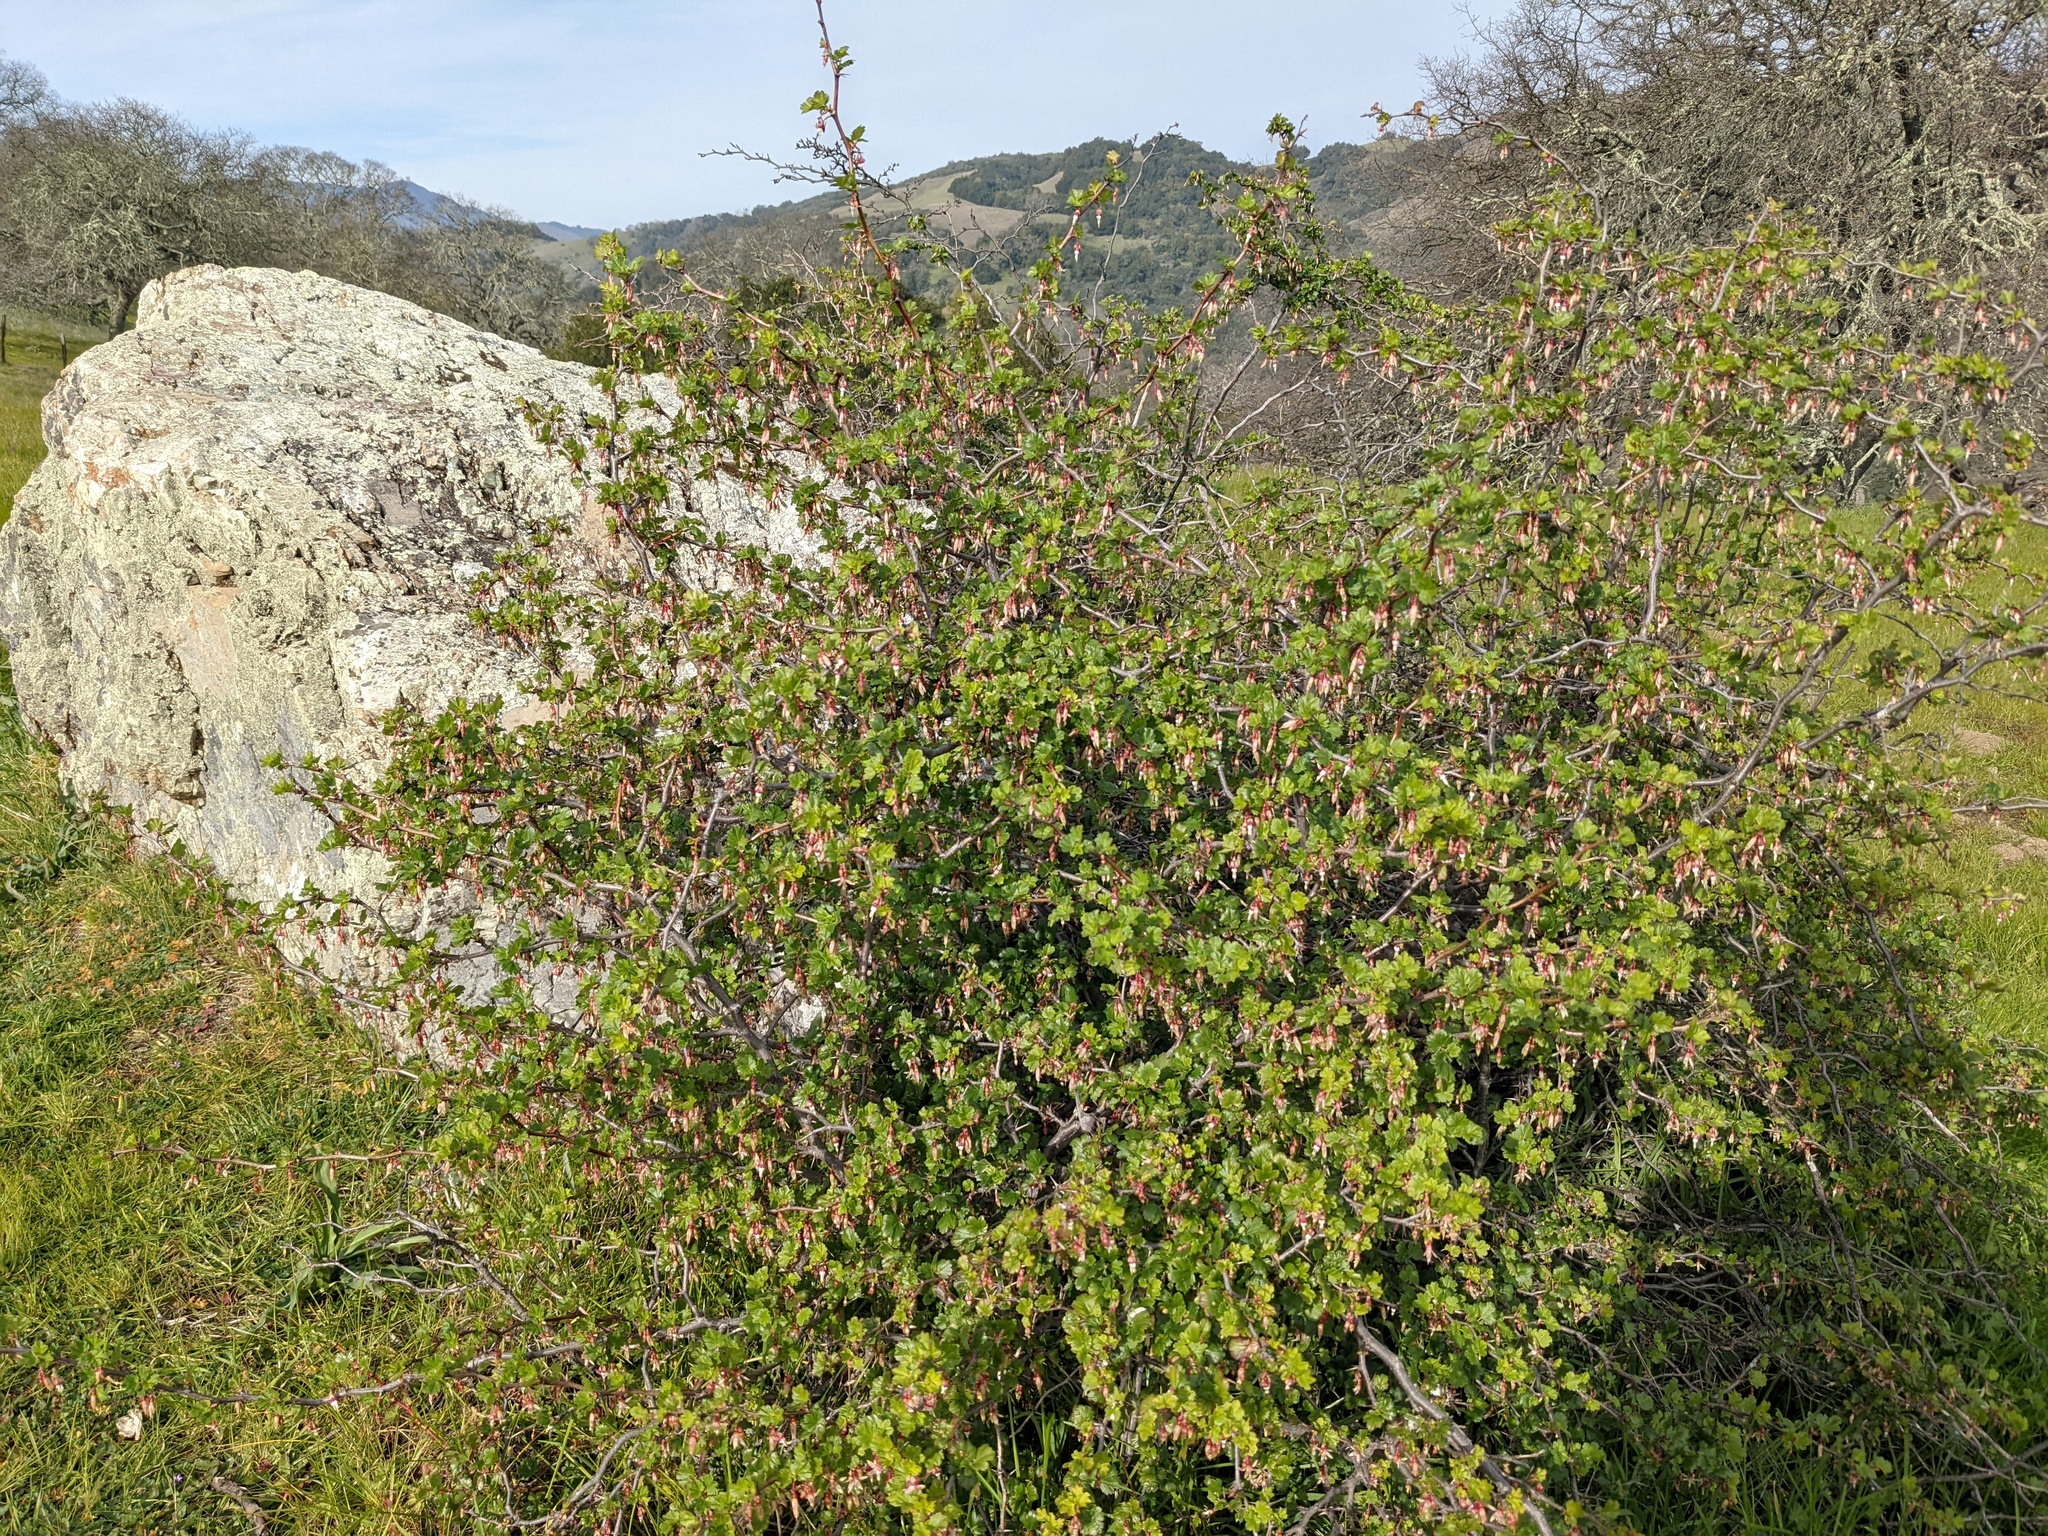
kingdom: Plantae
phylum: Tracheophyta
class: Magnoliopsida
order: Saxifragales
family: Grossulariaceae
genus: Ribes
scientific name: Ribes californicum
